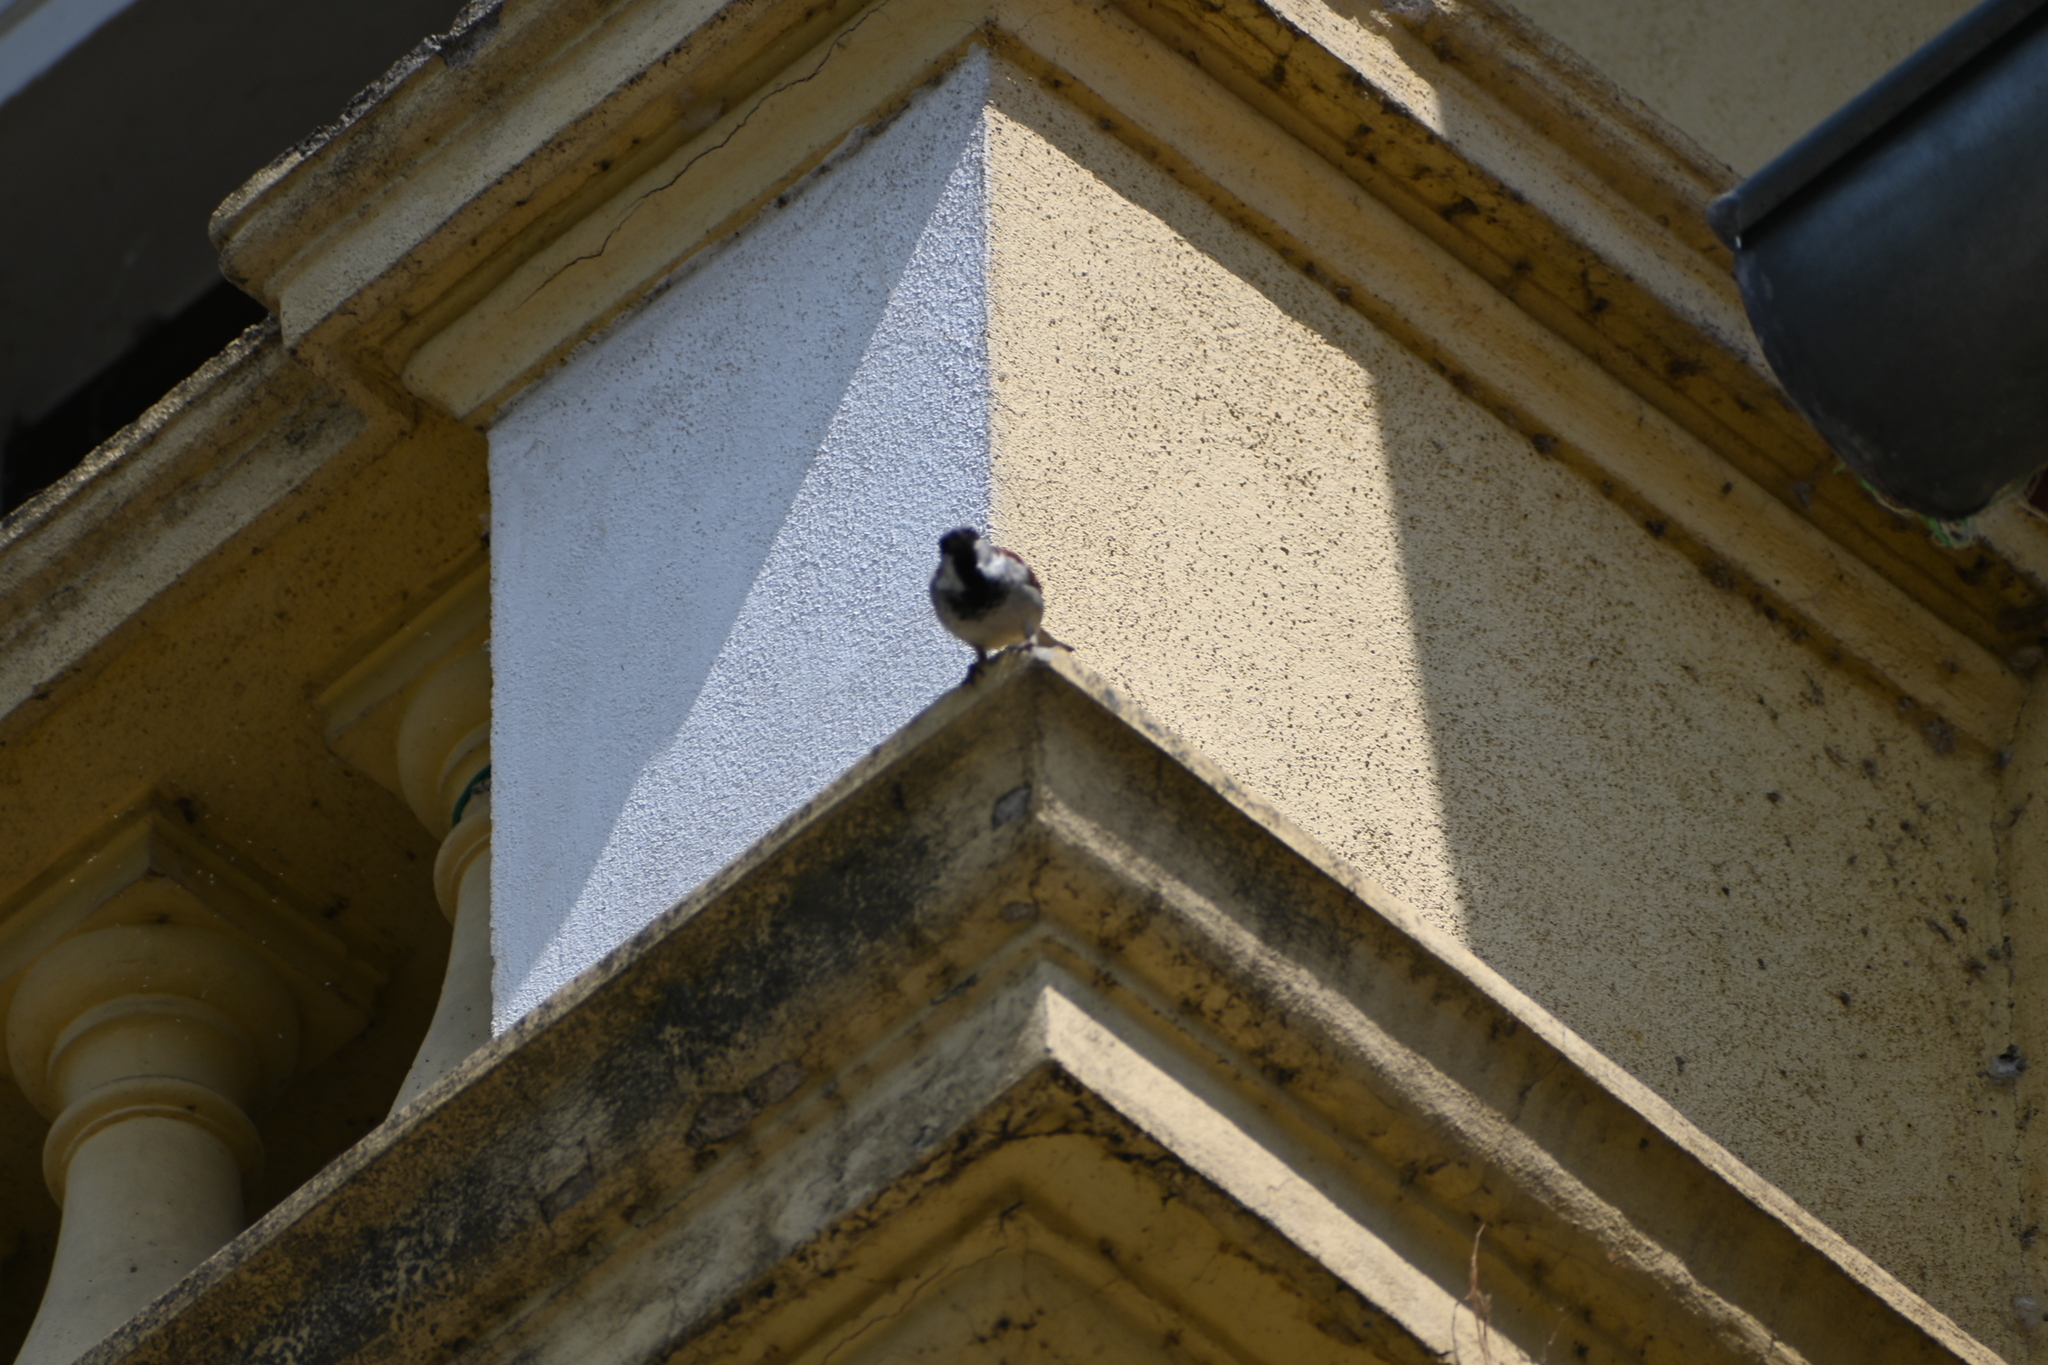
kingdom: Animalia
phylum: Chordata
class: Aves
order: Passeriformes
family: Passeridae
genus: Passer
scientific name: Passer domesticus
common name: House sparrow
